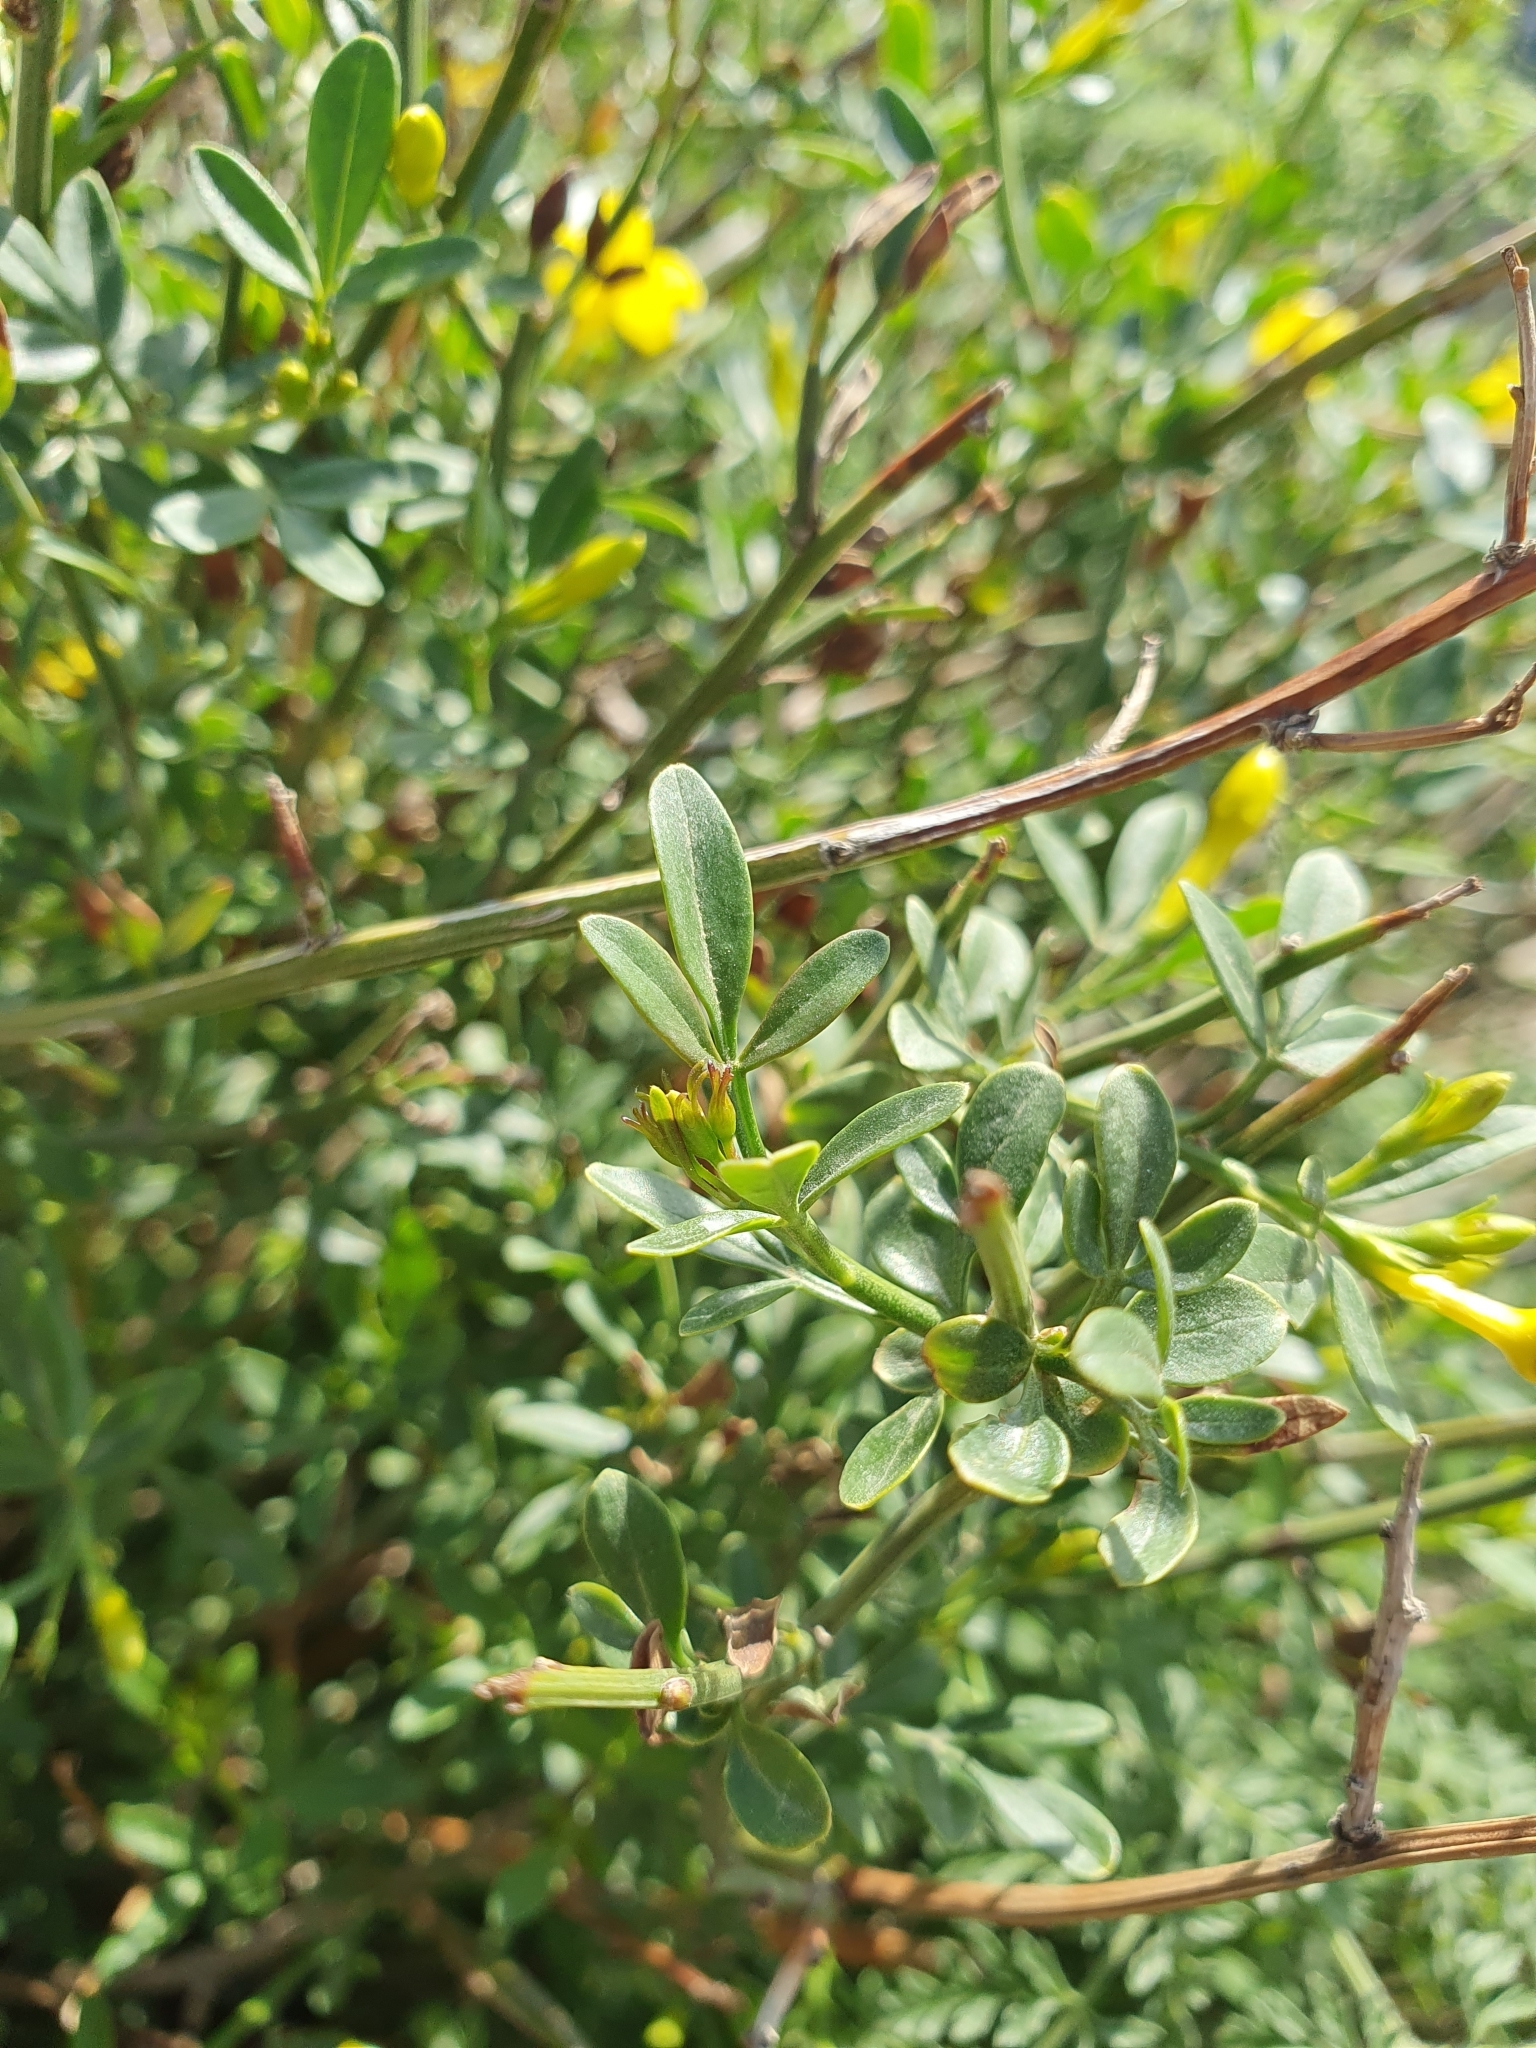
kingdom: Plantae
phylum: Tracheophyta
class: Magnoliopsida
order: Lamiales
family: Oleaceae
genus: Chrysojasminum
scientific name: Chrysojasminum fruticans
